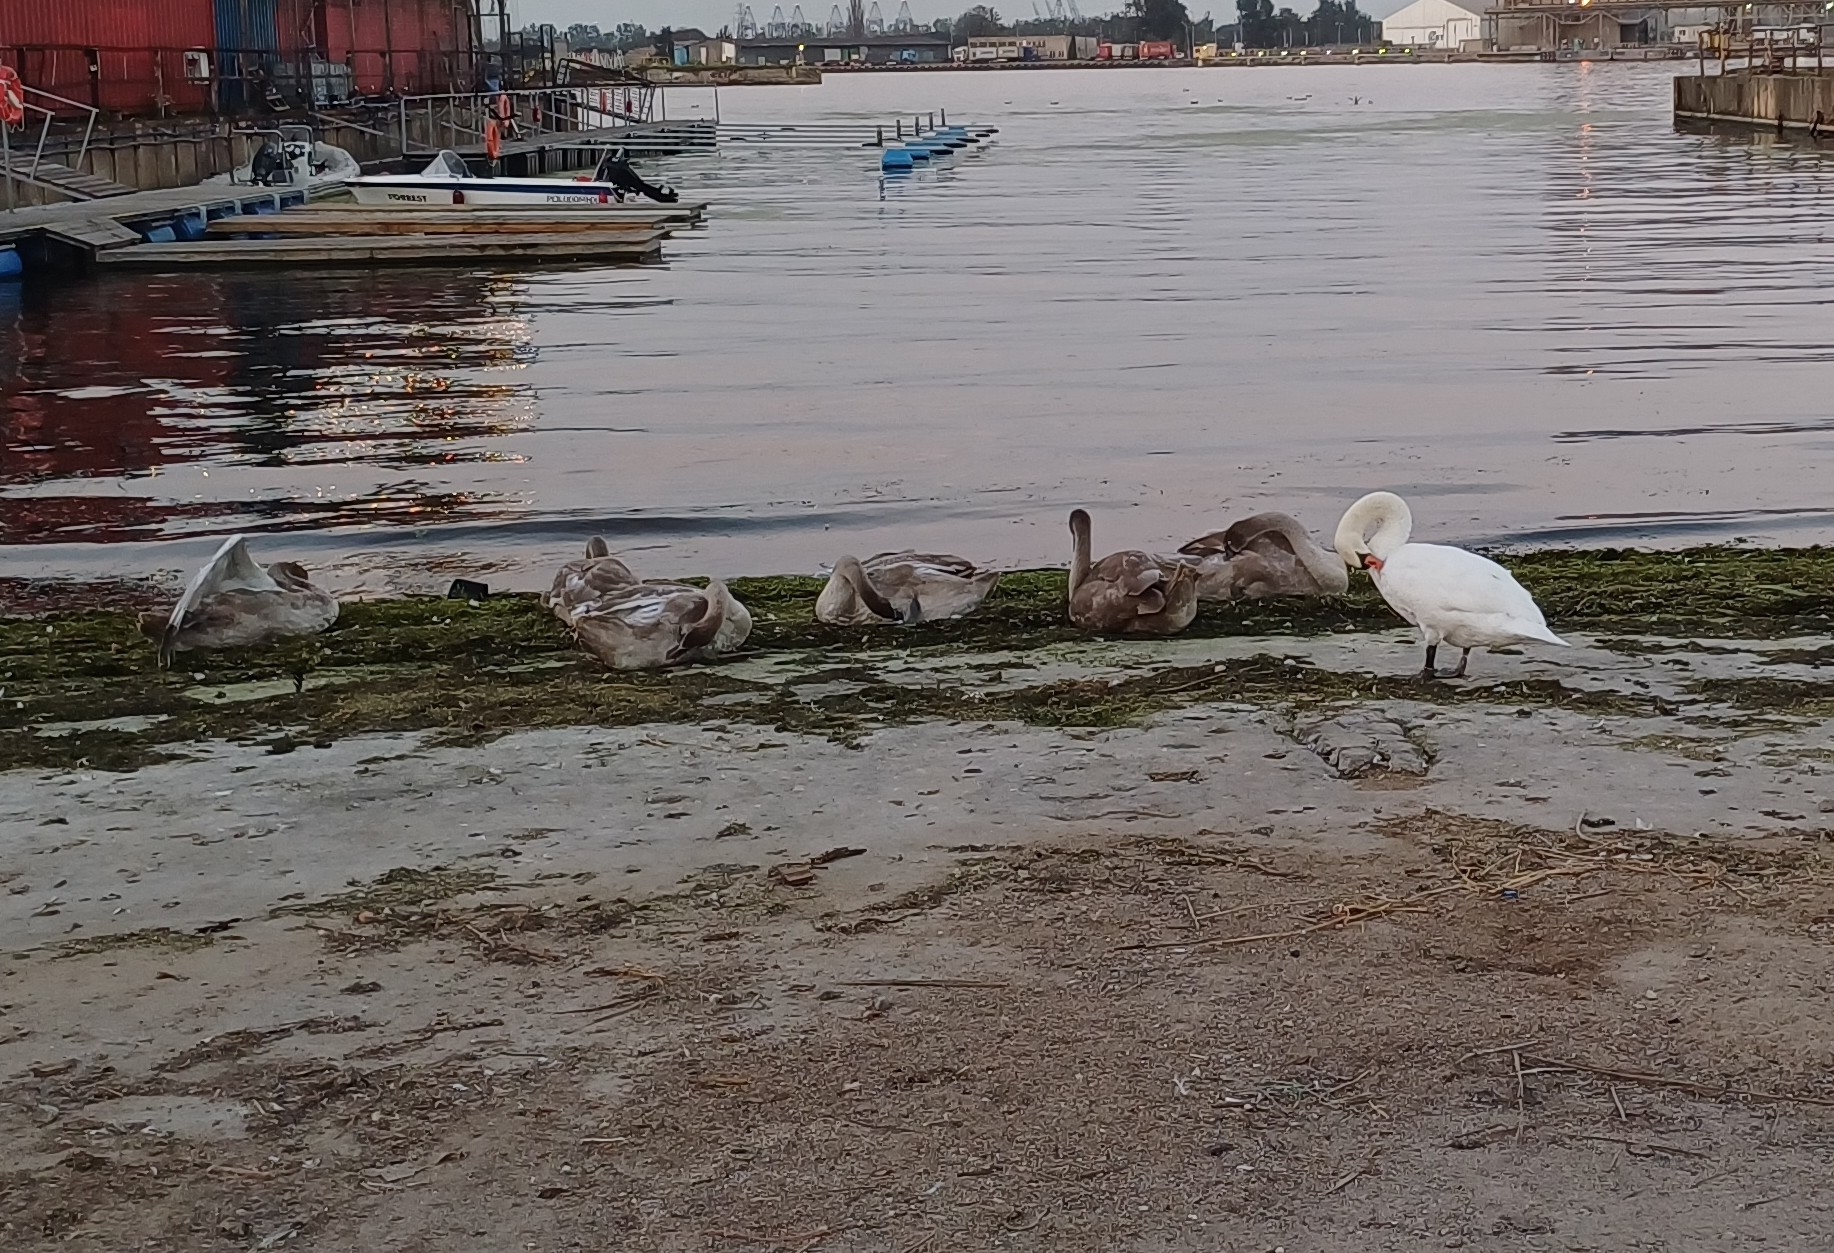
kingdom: Animalia
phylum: Chordata
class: Aves
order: Anseriformes
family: Anatidae
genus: Cygnus
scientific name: Cygnus olor
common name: Mute swan
